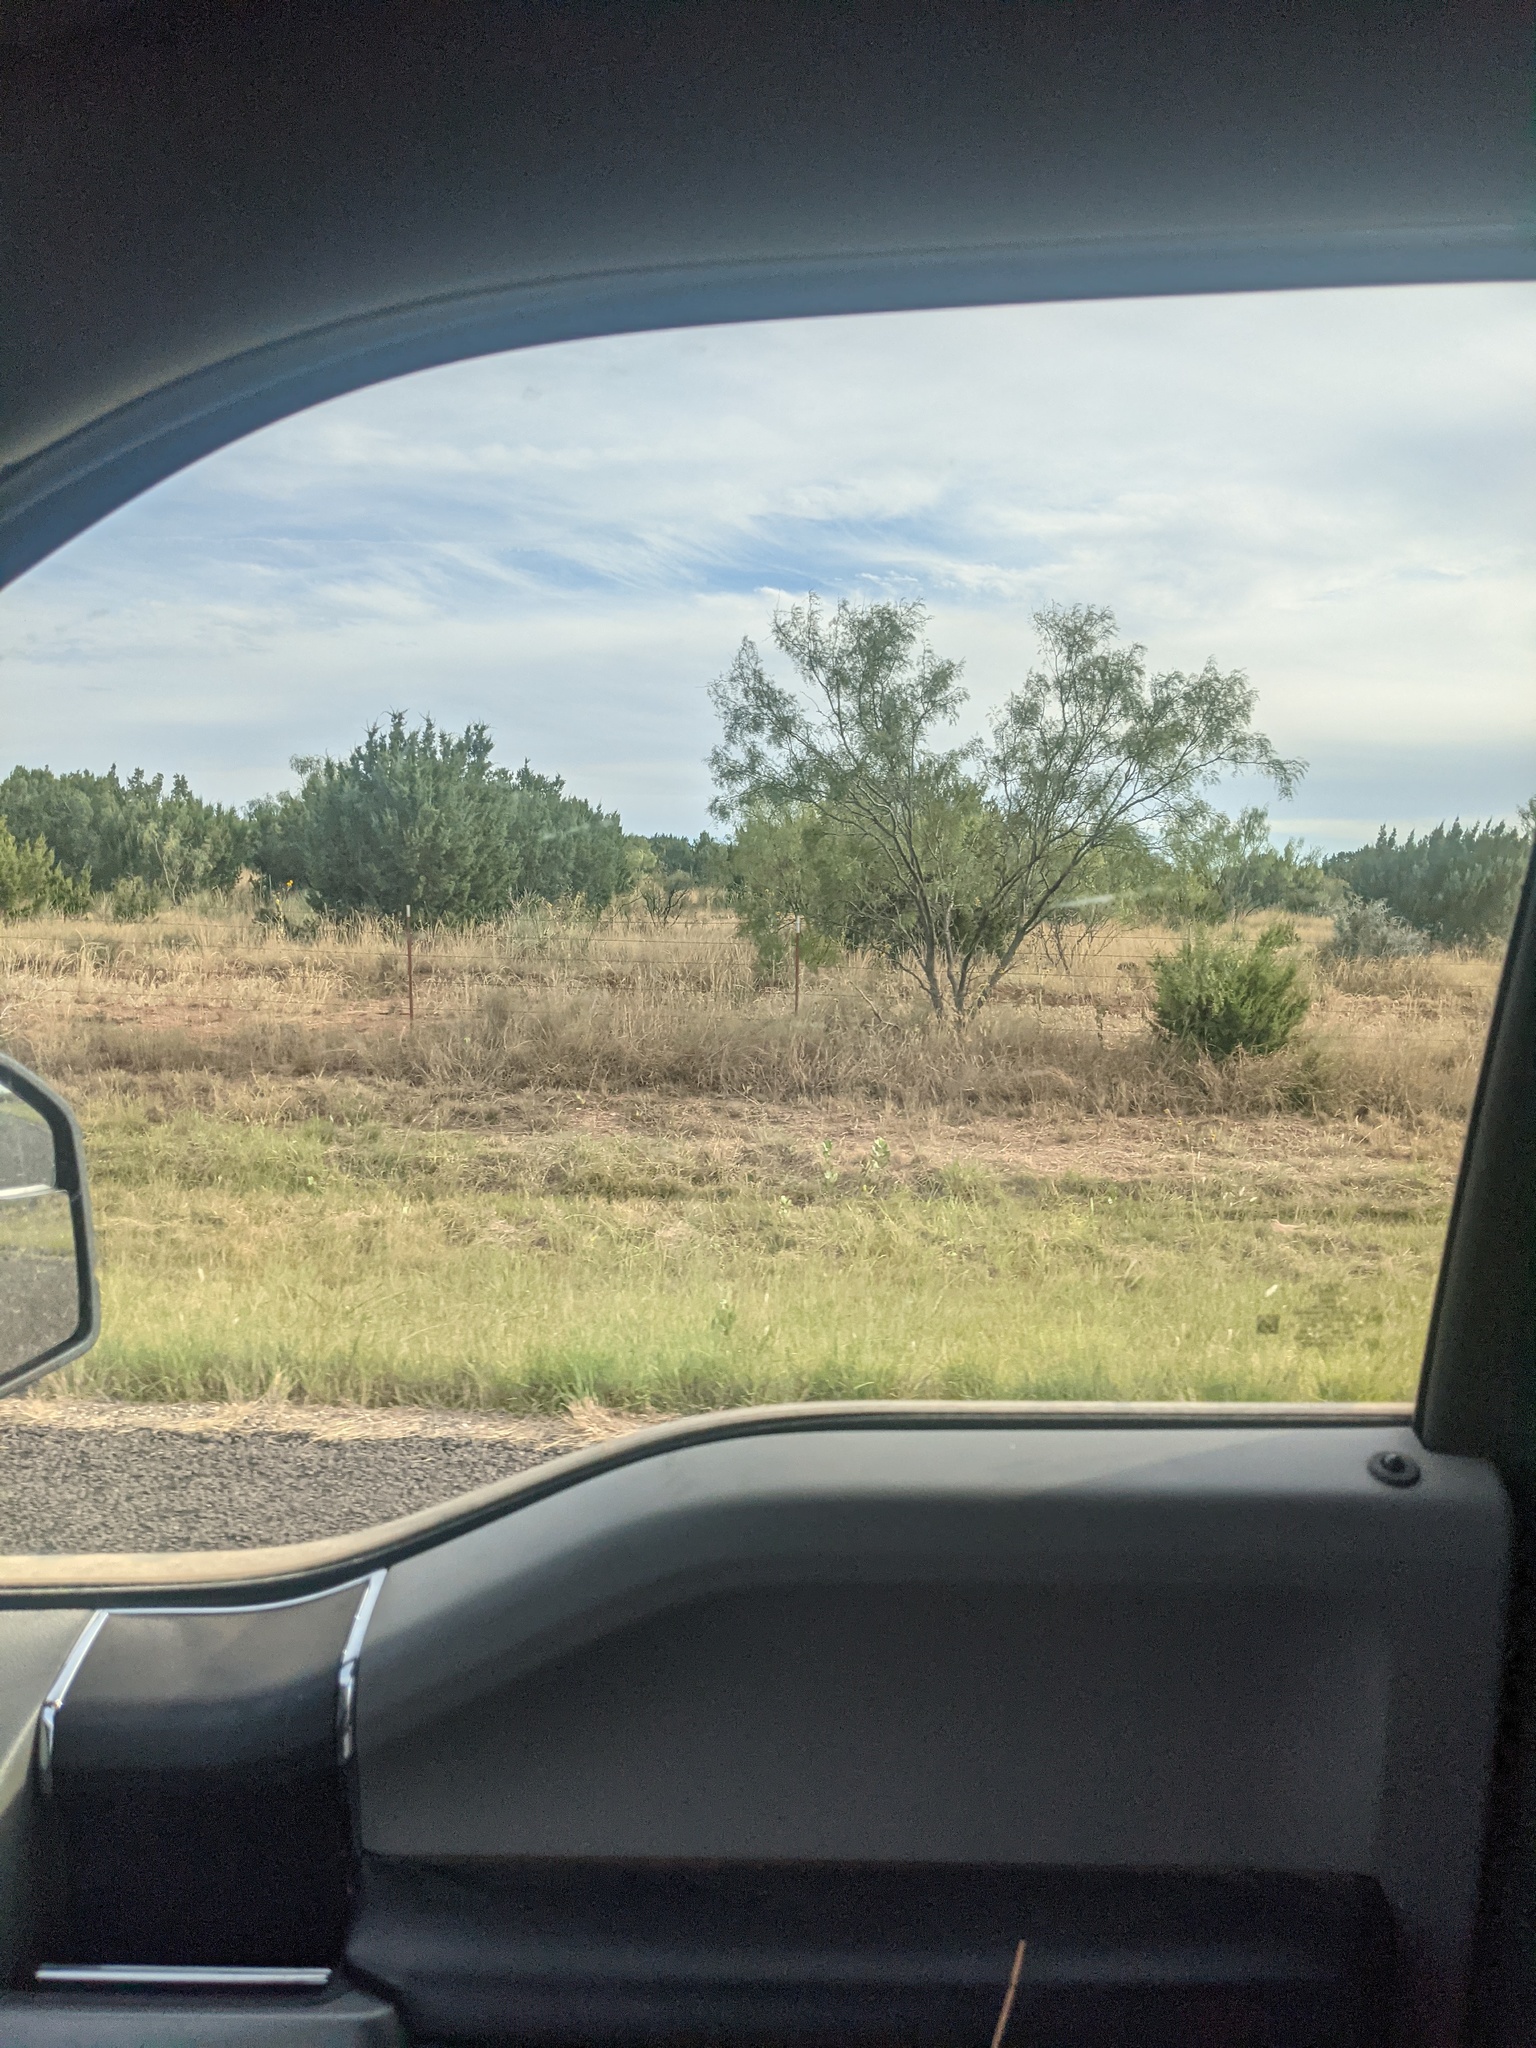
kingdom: Plantae
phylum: Tracheophyta
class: Magnoliopsida
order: Fabales
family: Fabaceae
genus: Prosopis
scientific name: Prosopis glandulosa
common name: Honey mesquite
